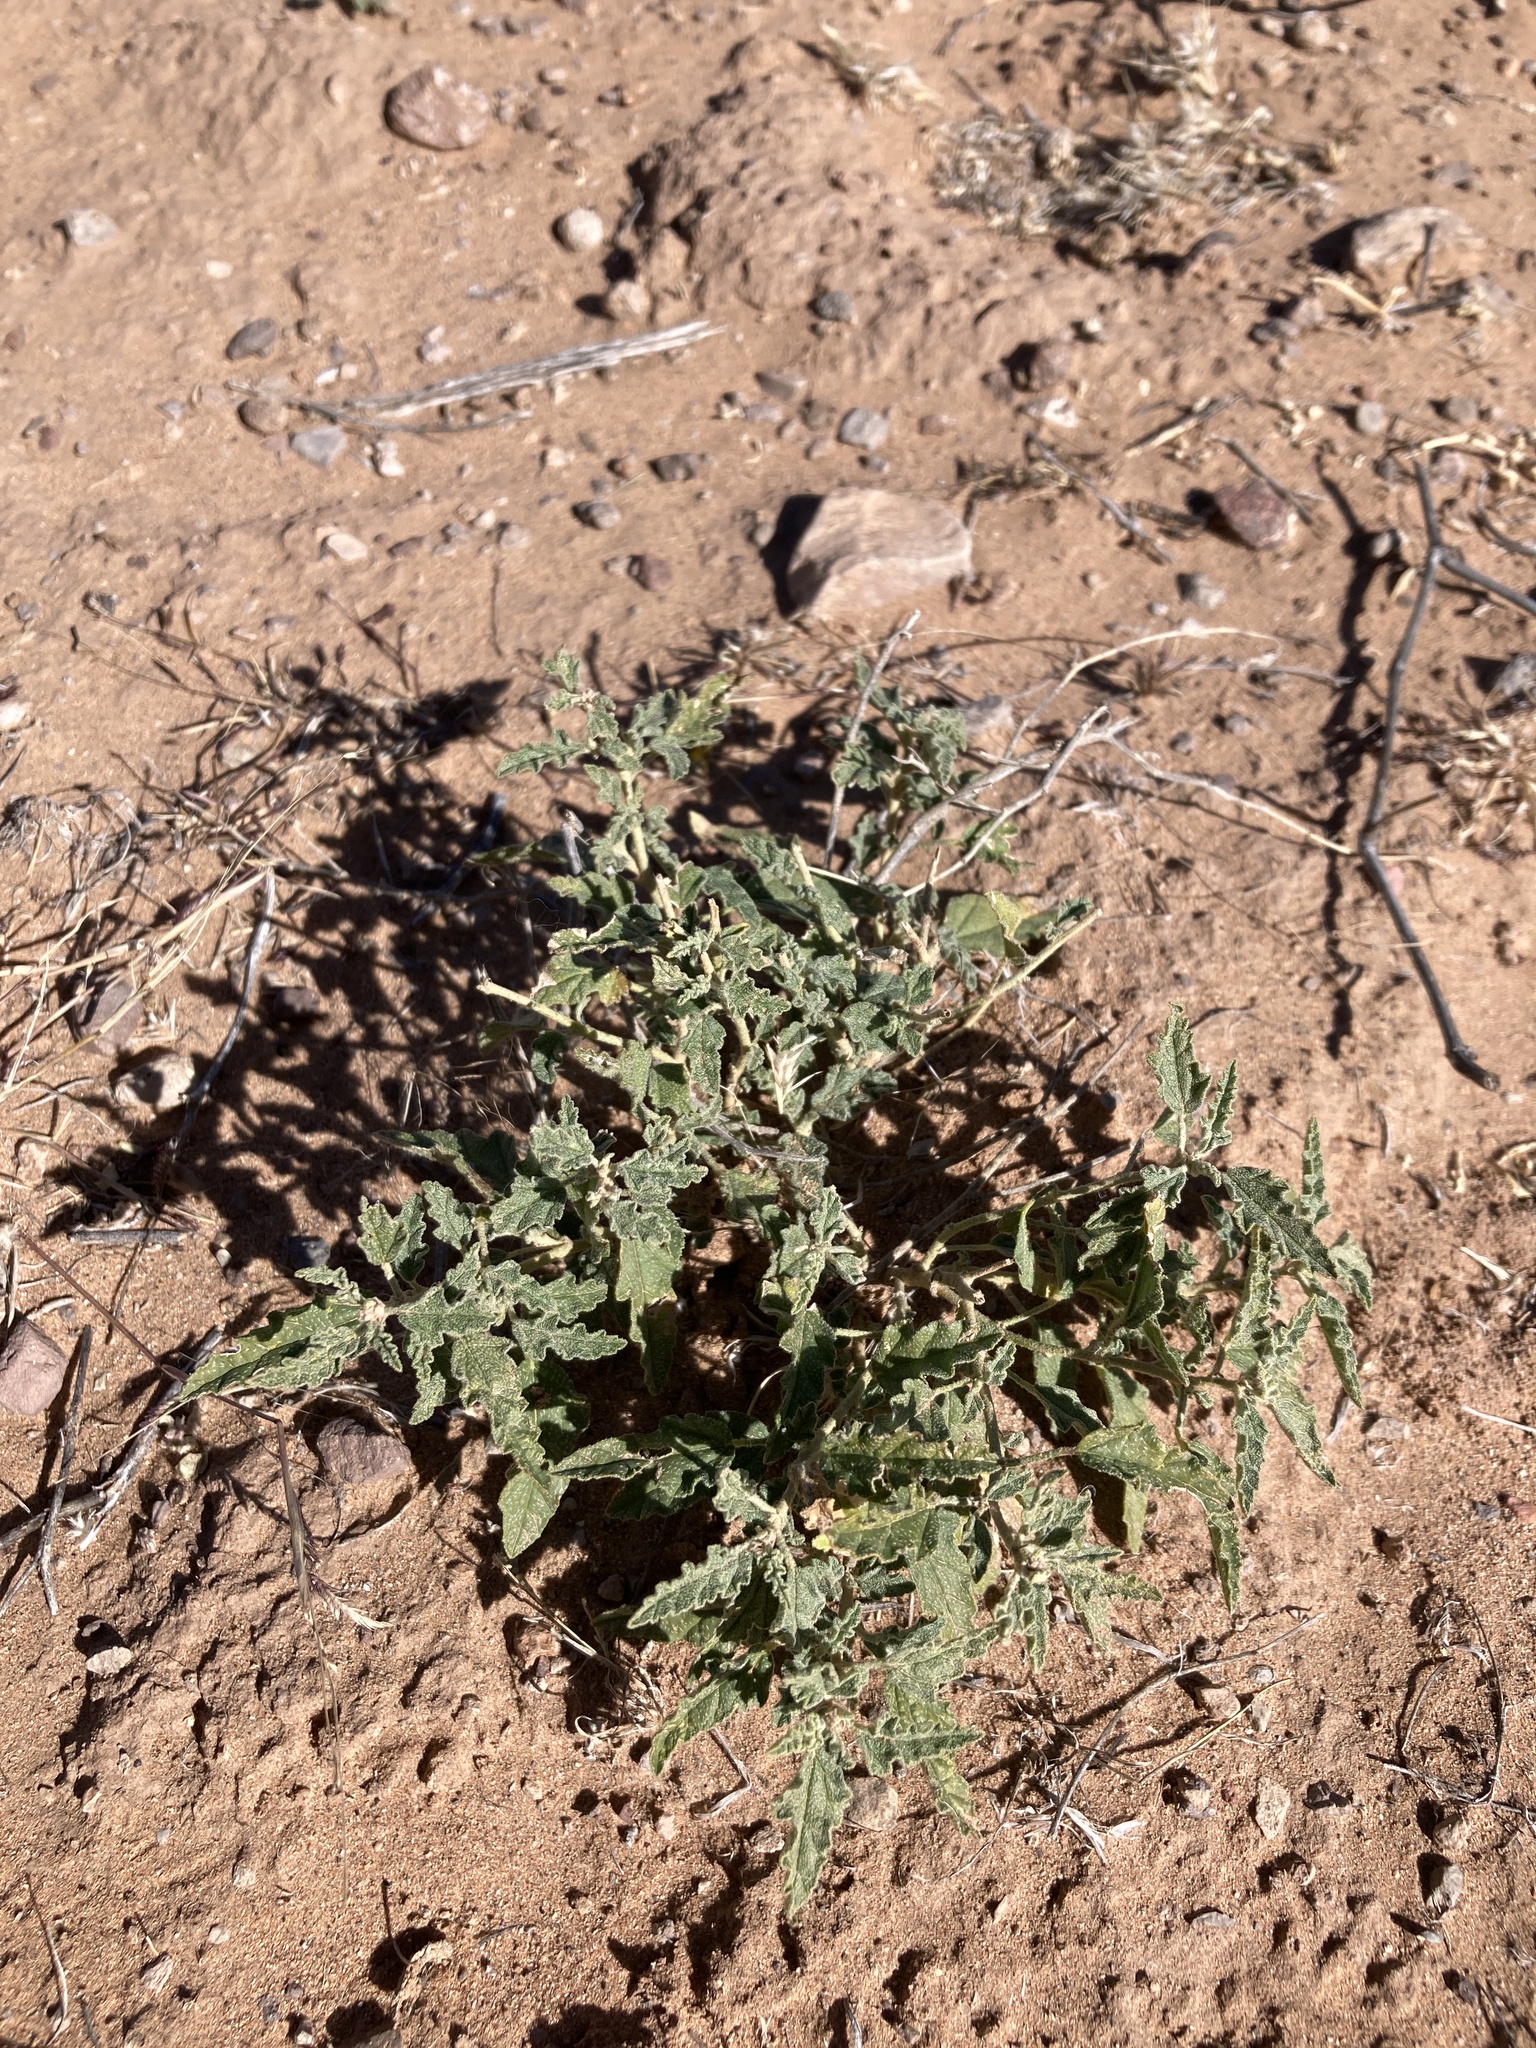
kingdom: Plantae
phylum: Tracheophyta
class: Magnoliopsida
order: Malvales
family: Malvaceae
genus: Sphaeralcea
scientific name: Sphaeralcea hastulata
